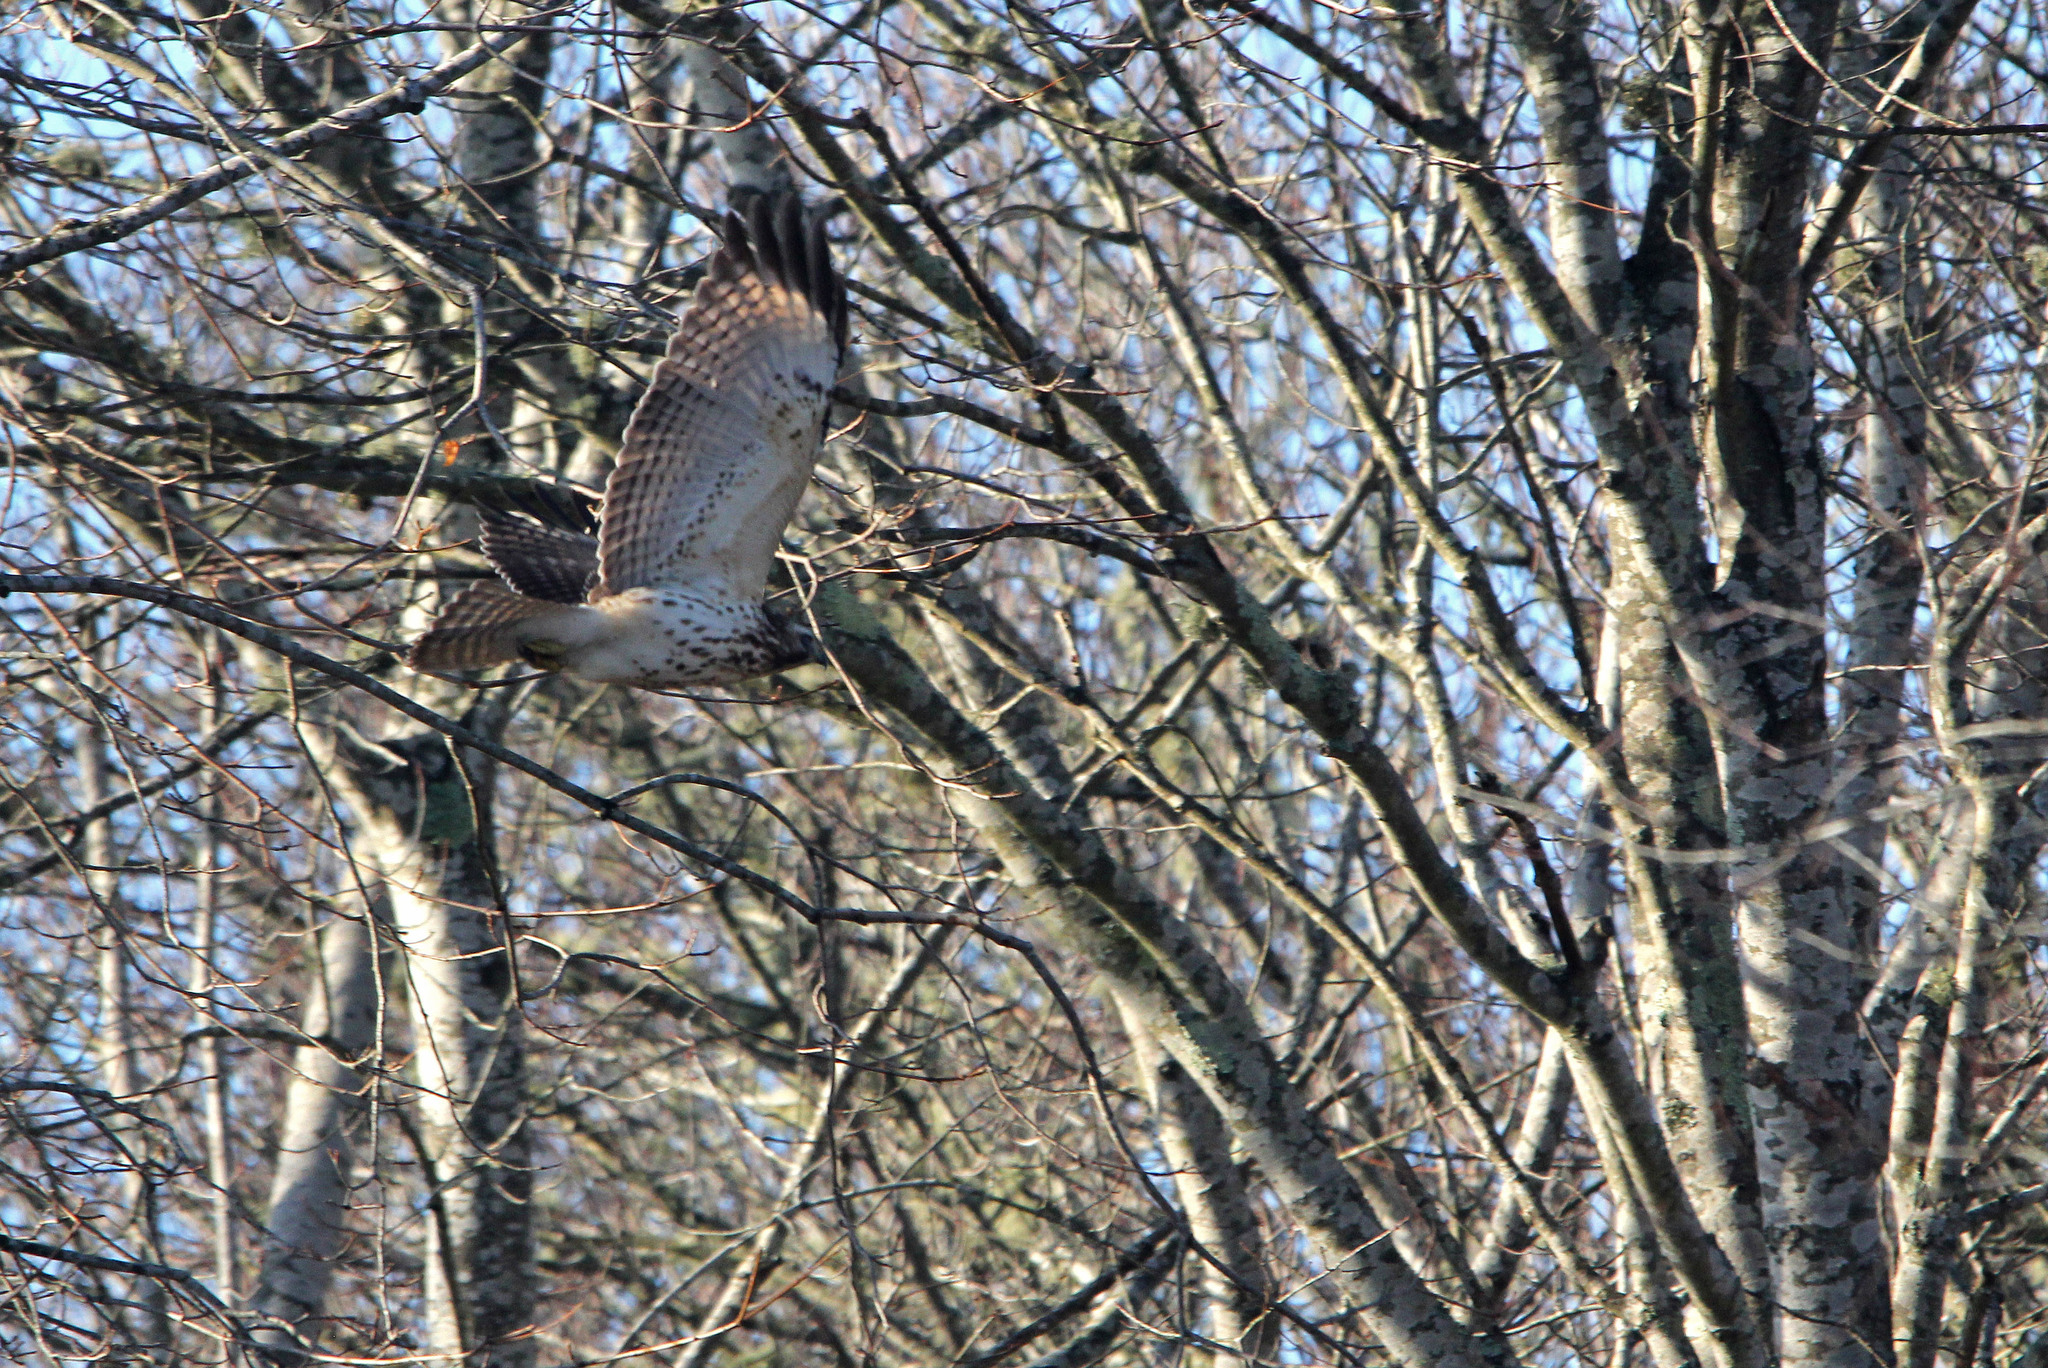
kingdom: Animalia
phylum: Chordata
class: Aves
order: Accipitriformes
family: Accipitridae
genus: Buteo
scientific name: Buteo lineatus
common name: Red-shouldered hawk
